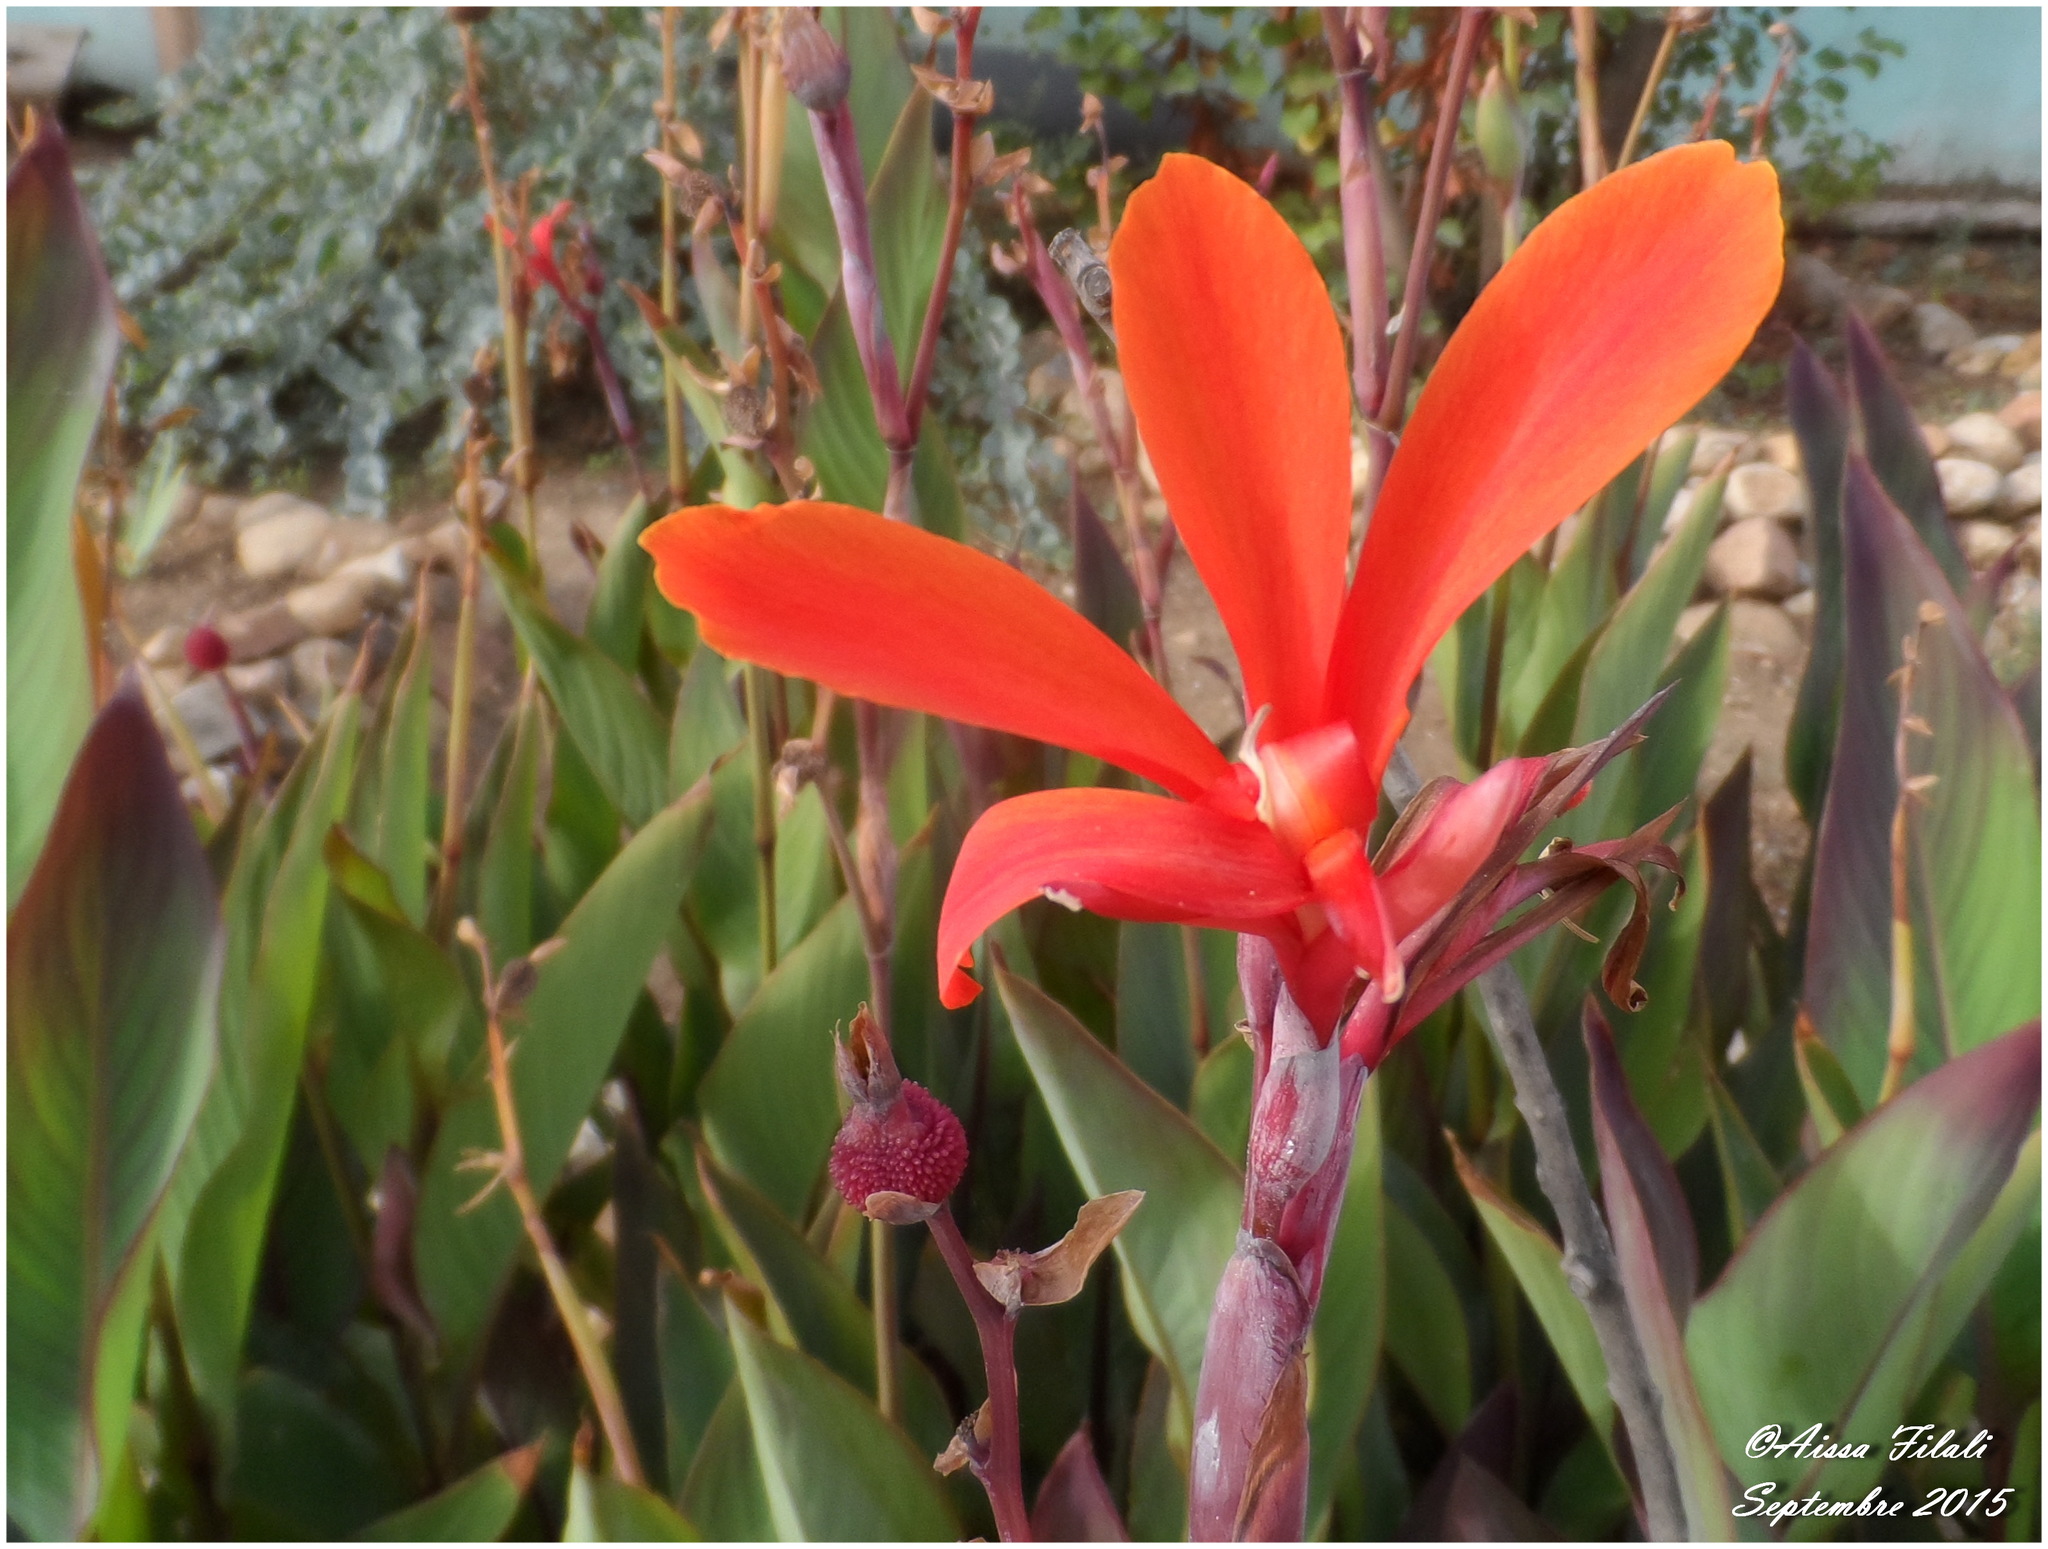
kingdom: Plantae
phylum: Tracheophyta
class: Liliopsida
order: Zingiberales
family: Cannaceae
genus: Canna
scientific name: Canna indica
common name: Indian shot
